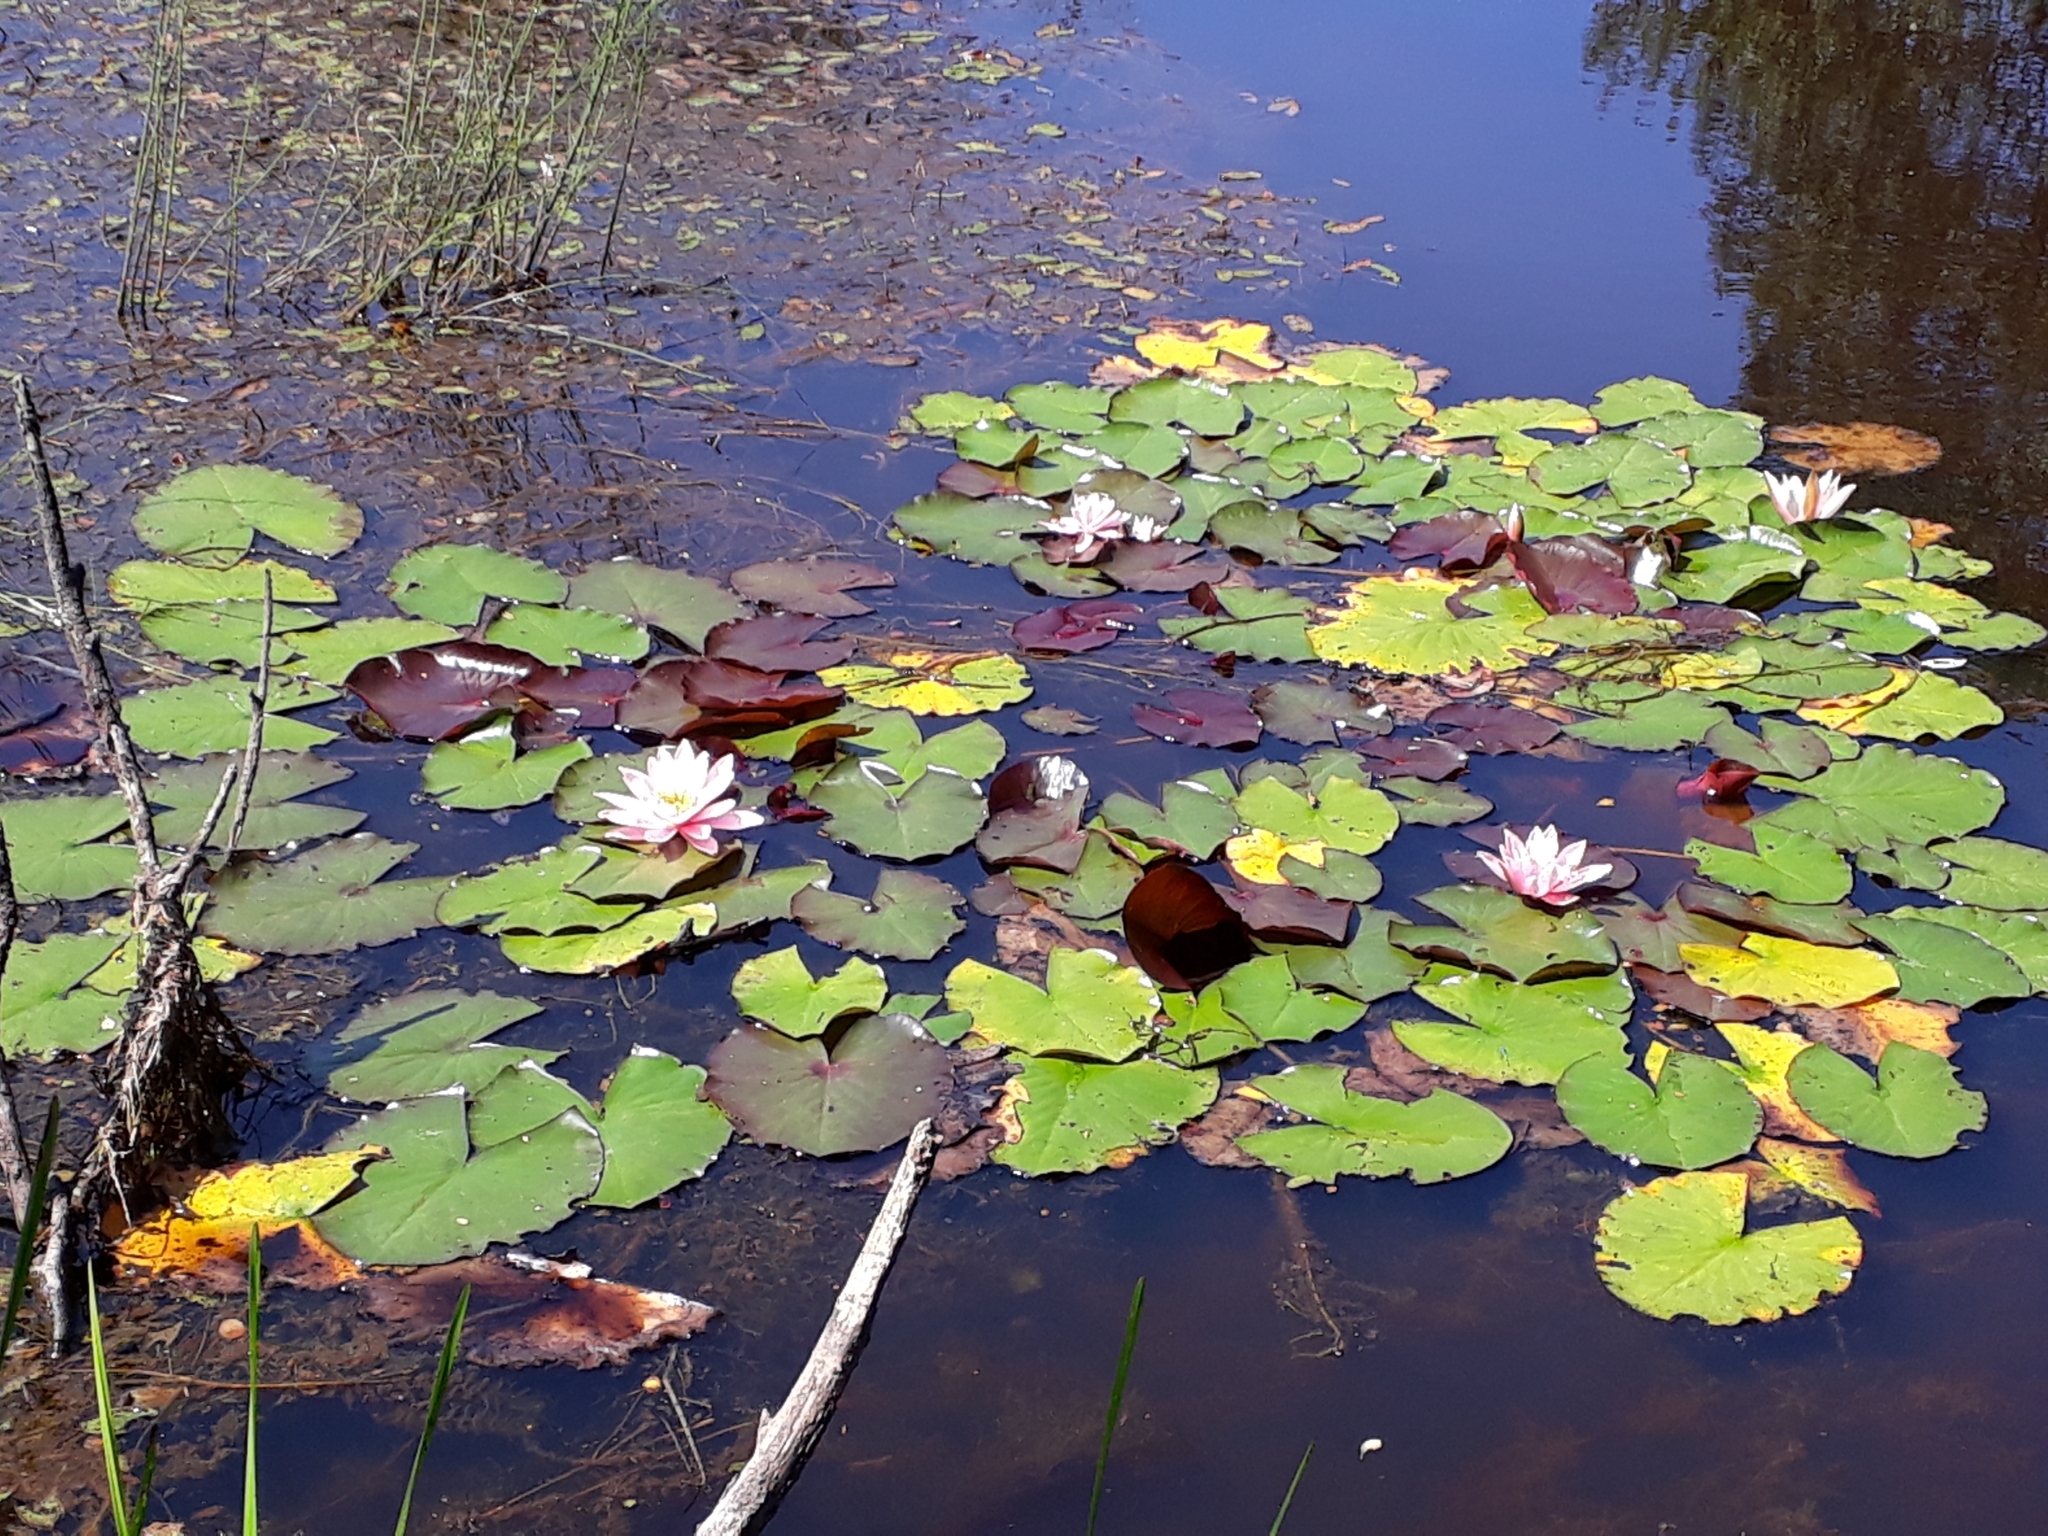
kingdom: Plantae
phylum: Tracheophyta
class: Magnoliopsida
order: Nymphaeales
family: Nymphaeaceae
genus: Nymphaea
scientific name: Nymphaea alba
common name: White water-lily
